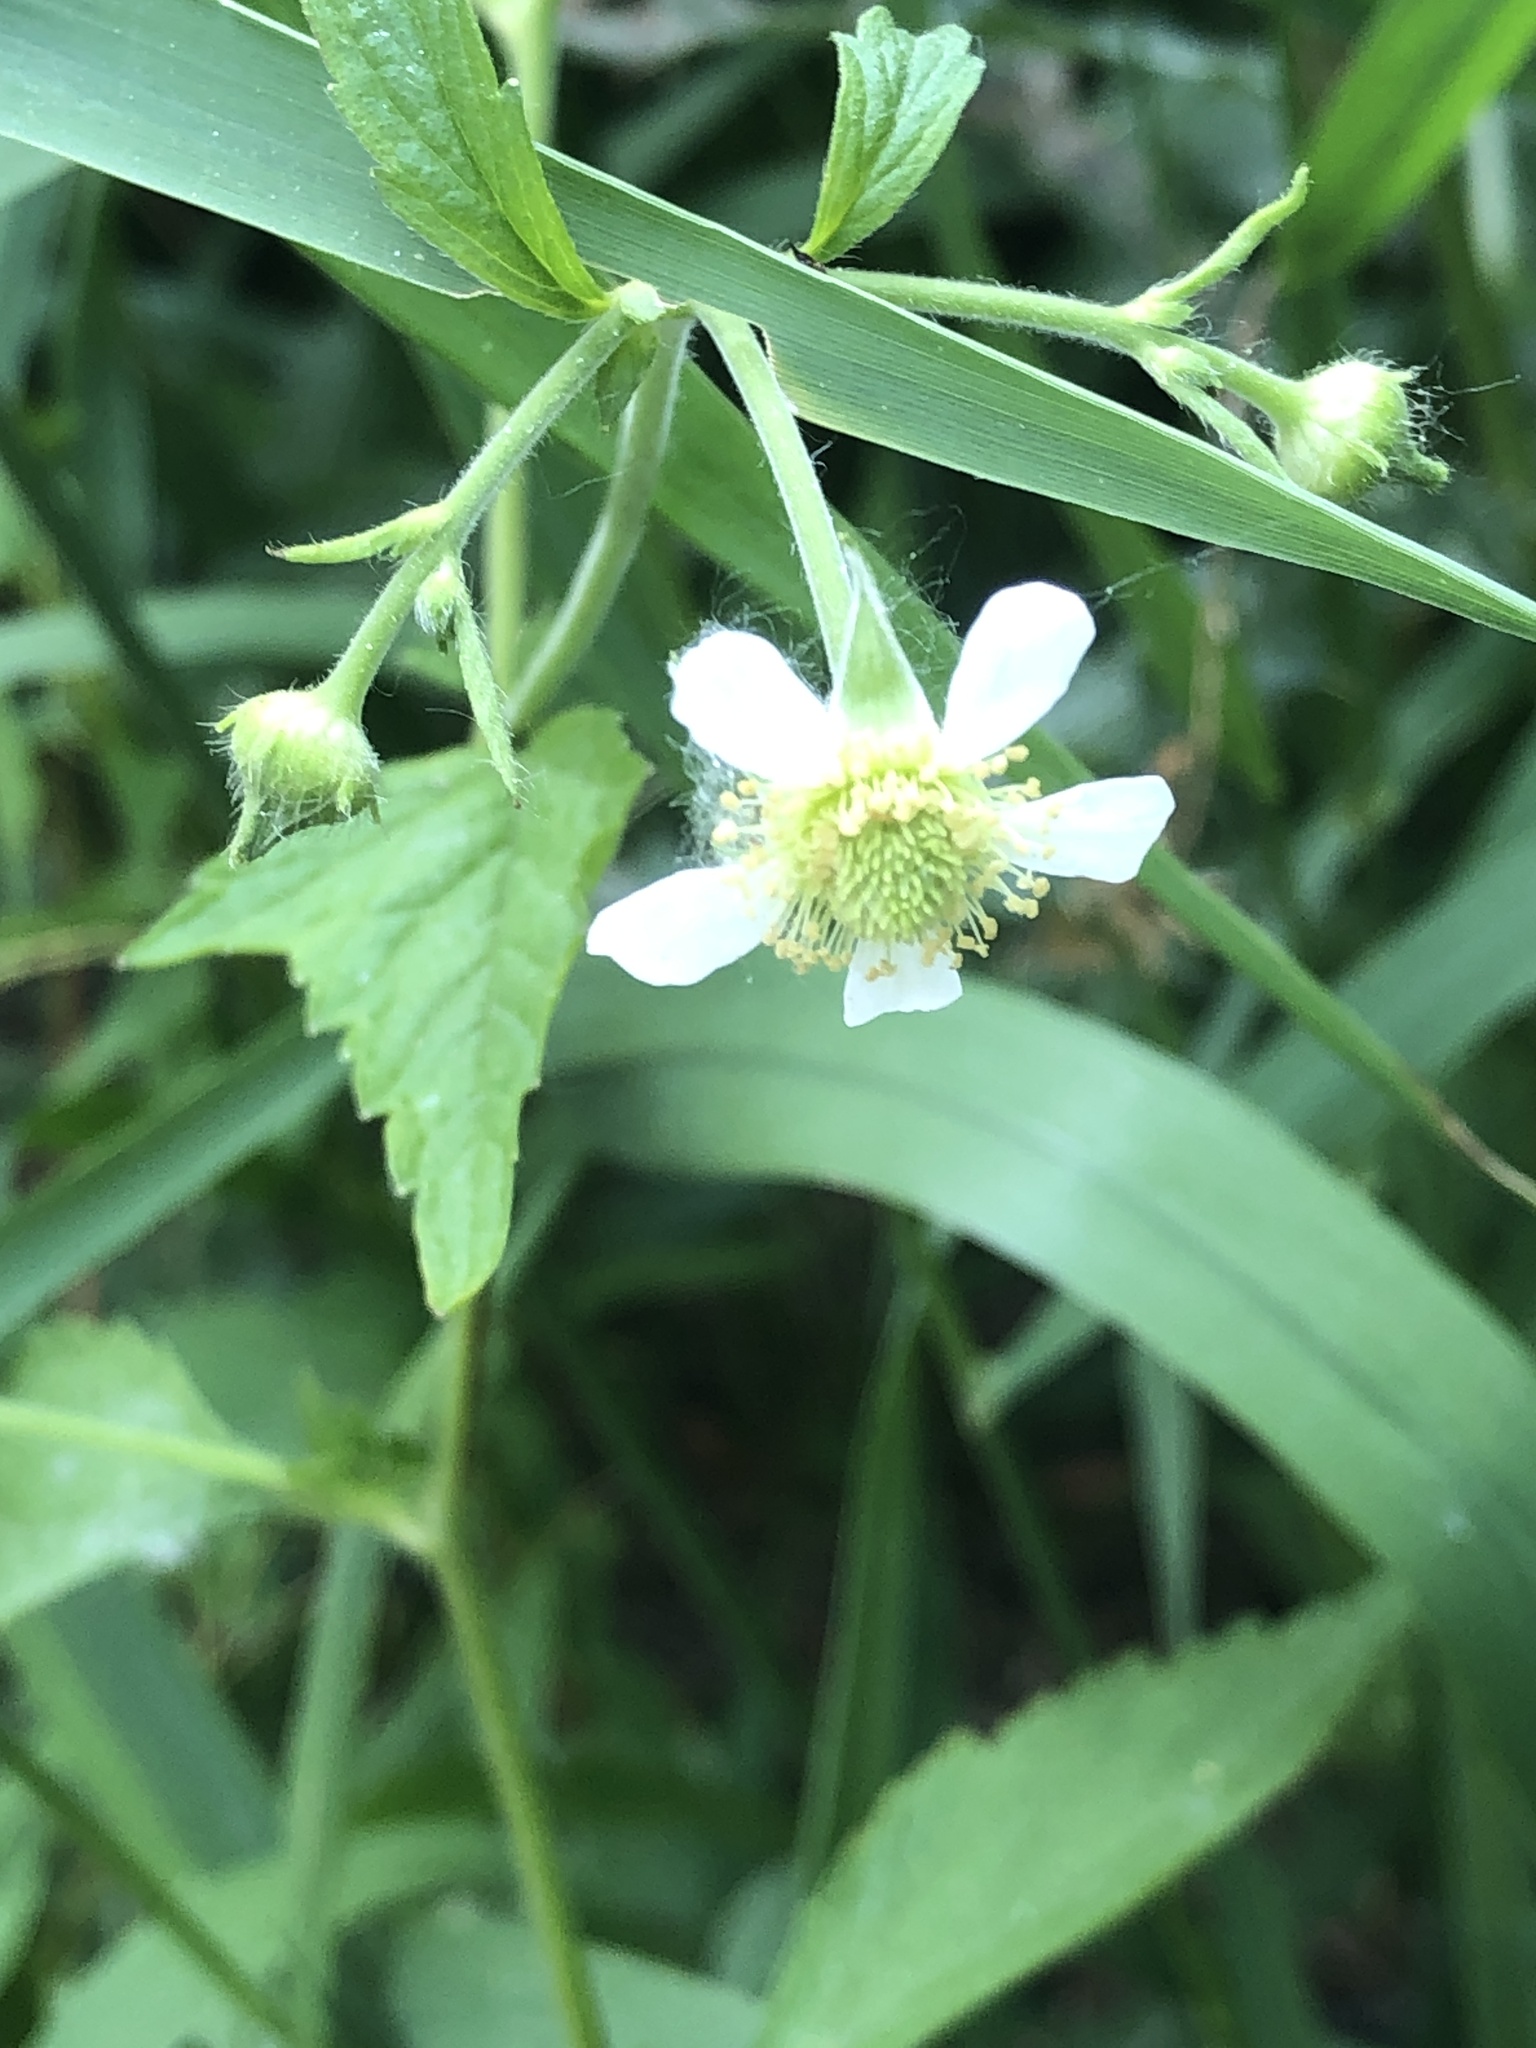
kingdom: Plantae
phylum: Tracheophyta
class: Magnoliopsida
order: Rosales
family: Rosaceae
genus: Geum
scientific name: Geum canadense
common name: White avens
